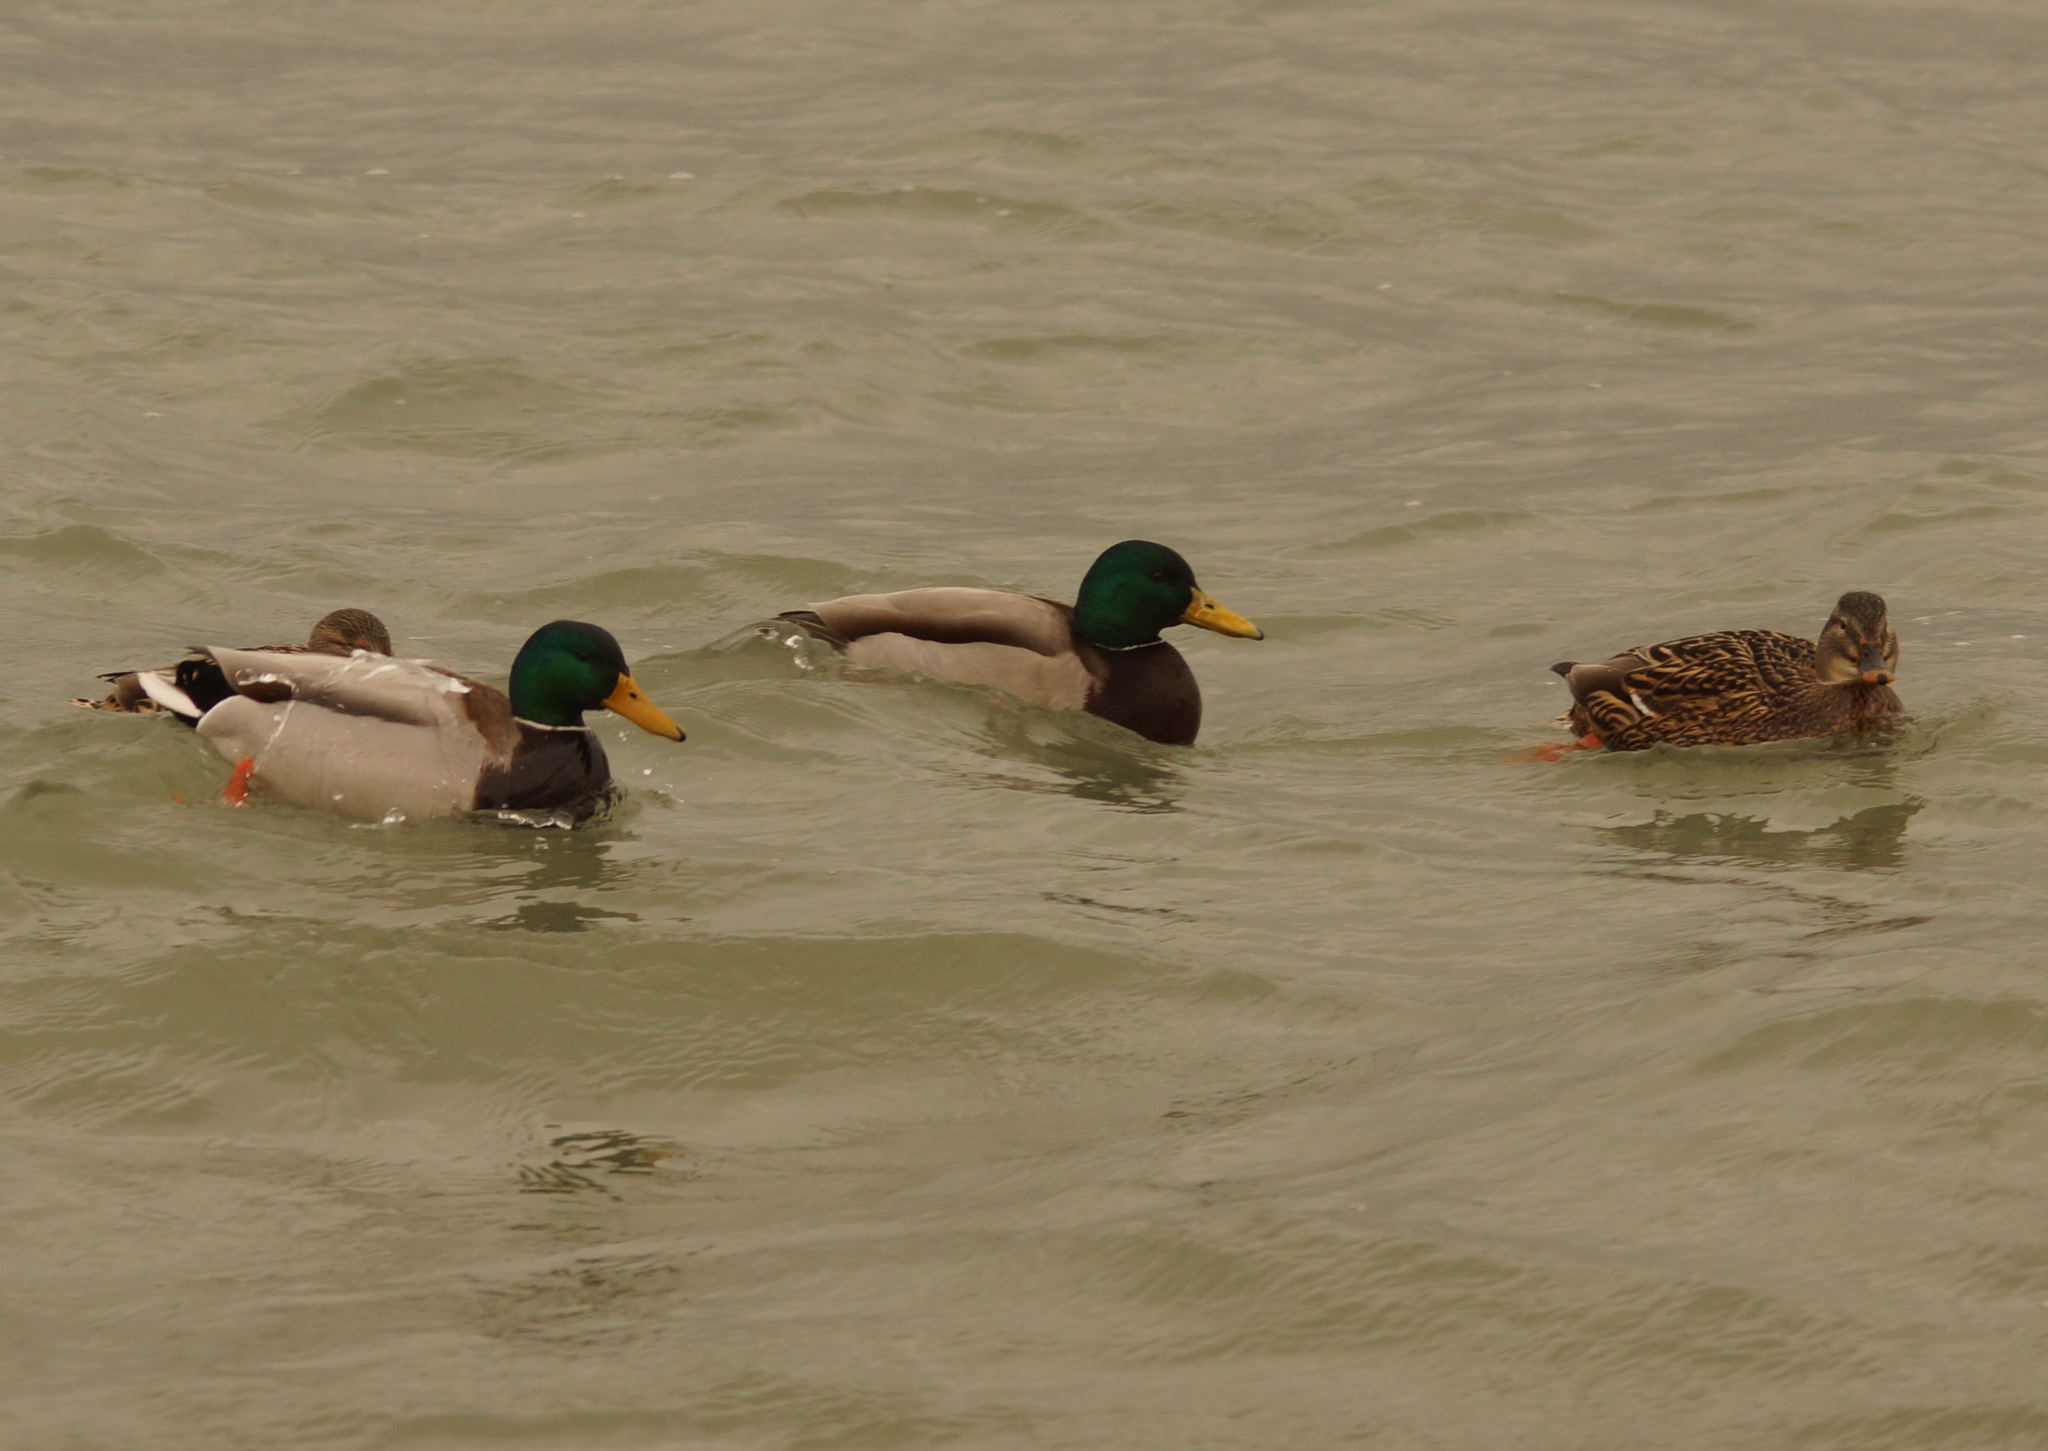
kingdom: Animalia
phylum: Chordata
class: Aves
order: Anseriformes
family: Anatidae
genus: Anas
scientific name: Anas platyrhynchos
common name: Mallard
